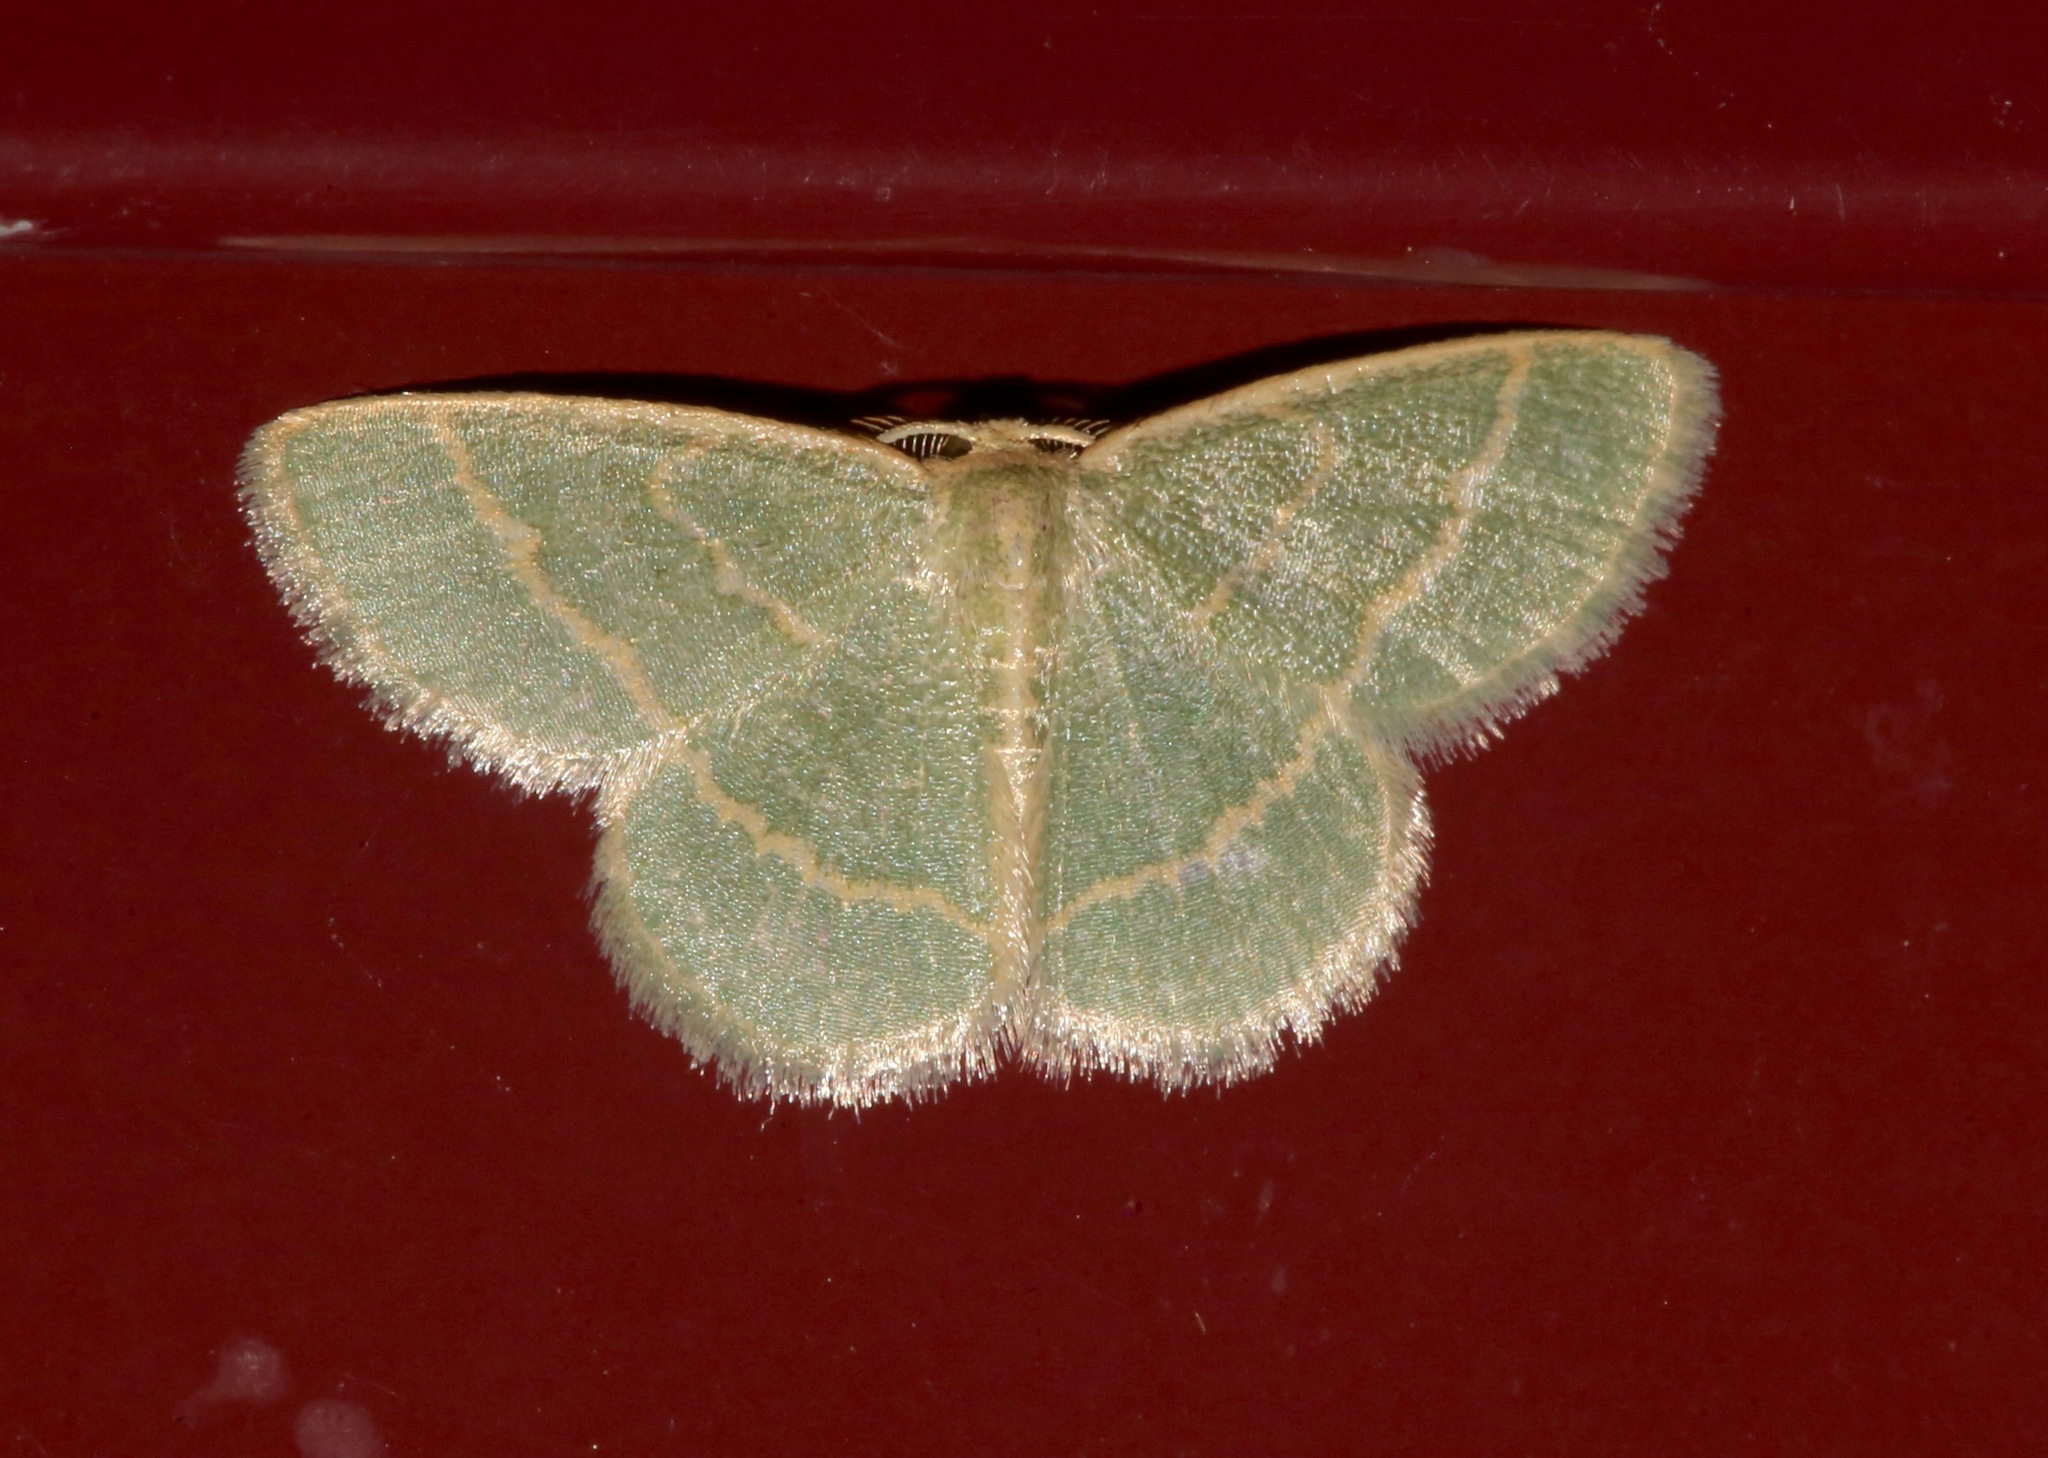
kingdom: Animalia
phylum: Arthropoda
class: Insecta
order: Lepidoptera
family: Geometridae
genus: Chlorochlamys
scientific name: Chlorochlamys chloroleucaria
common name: Blackberry looper
